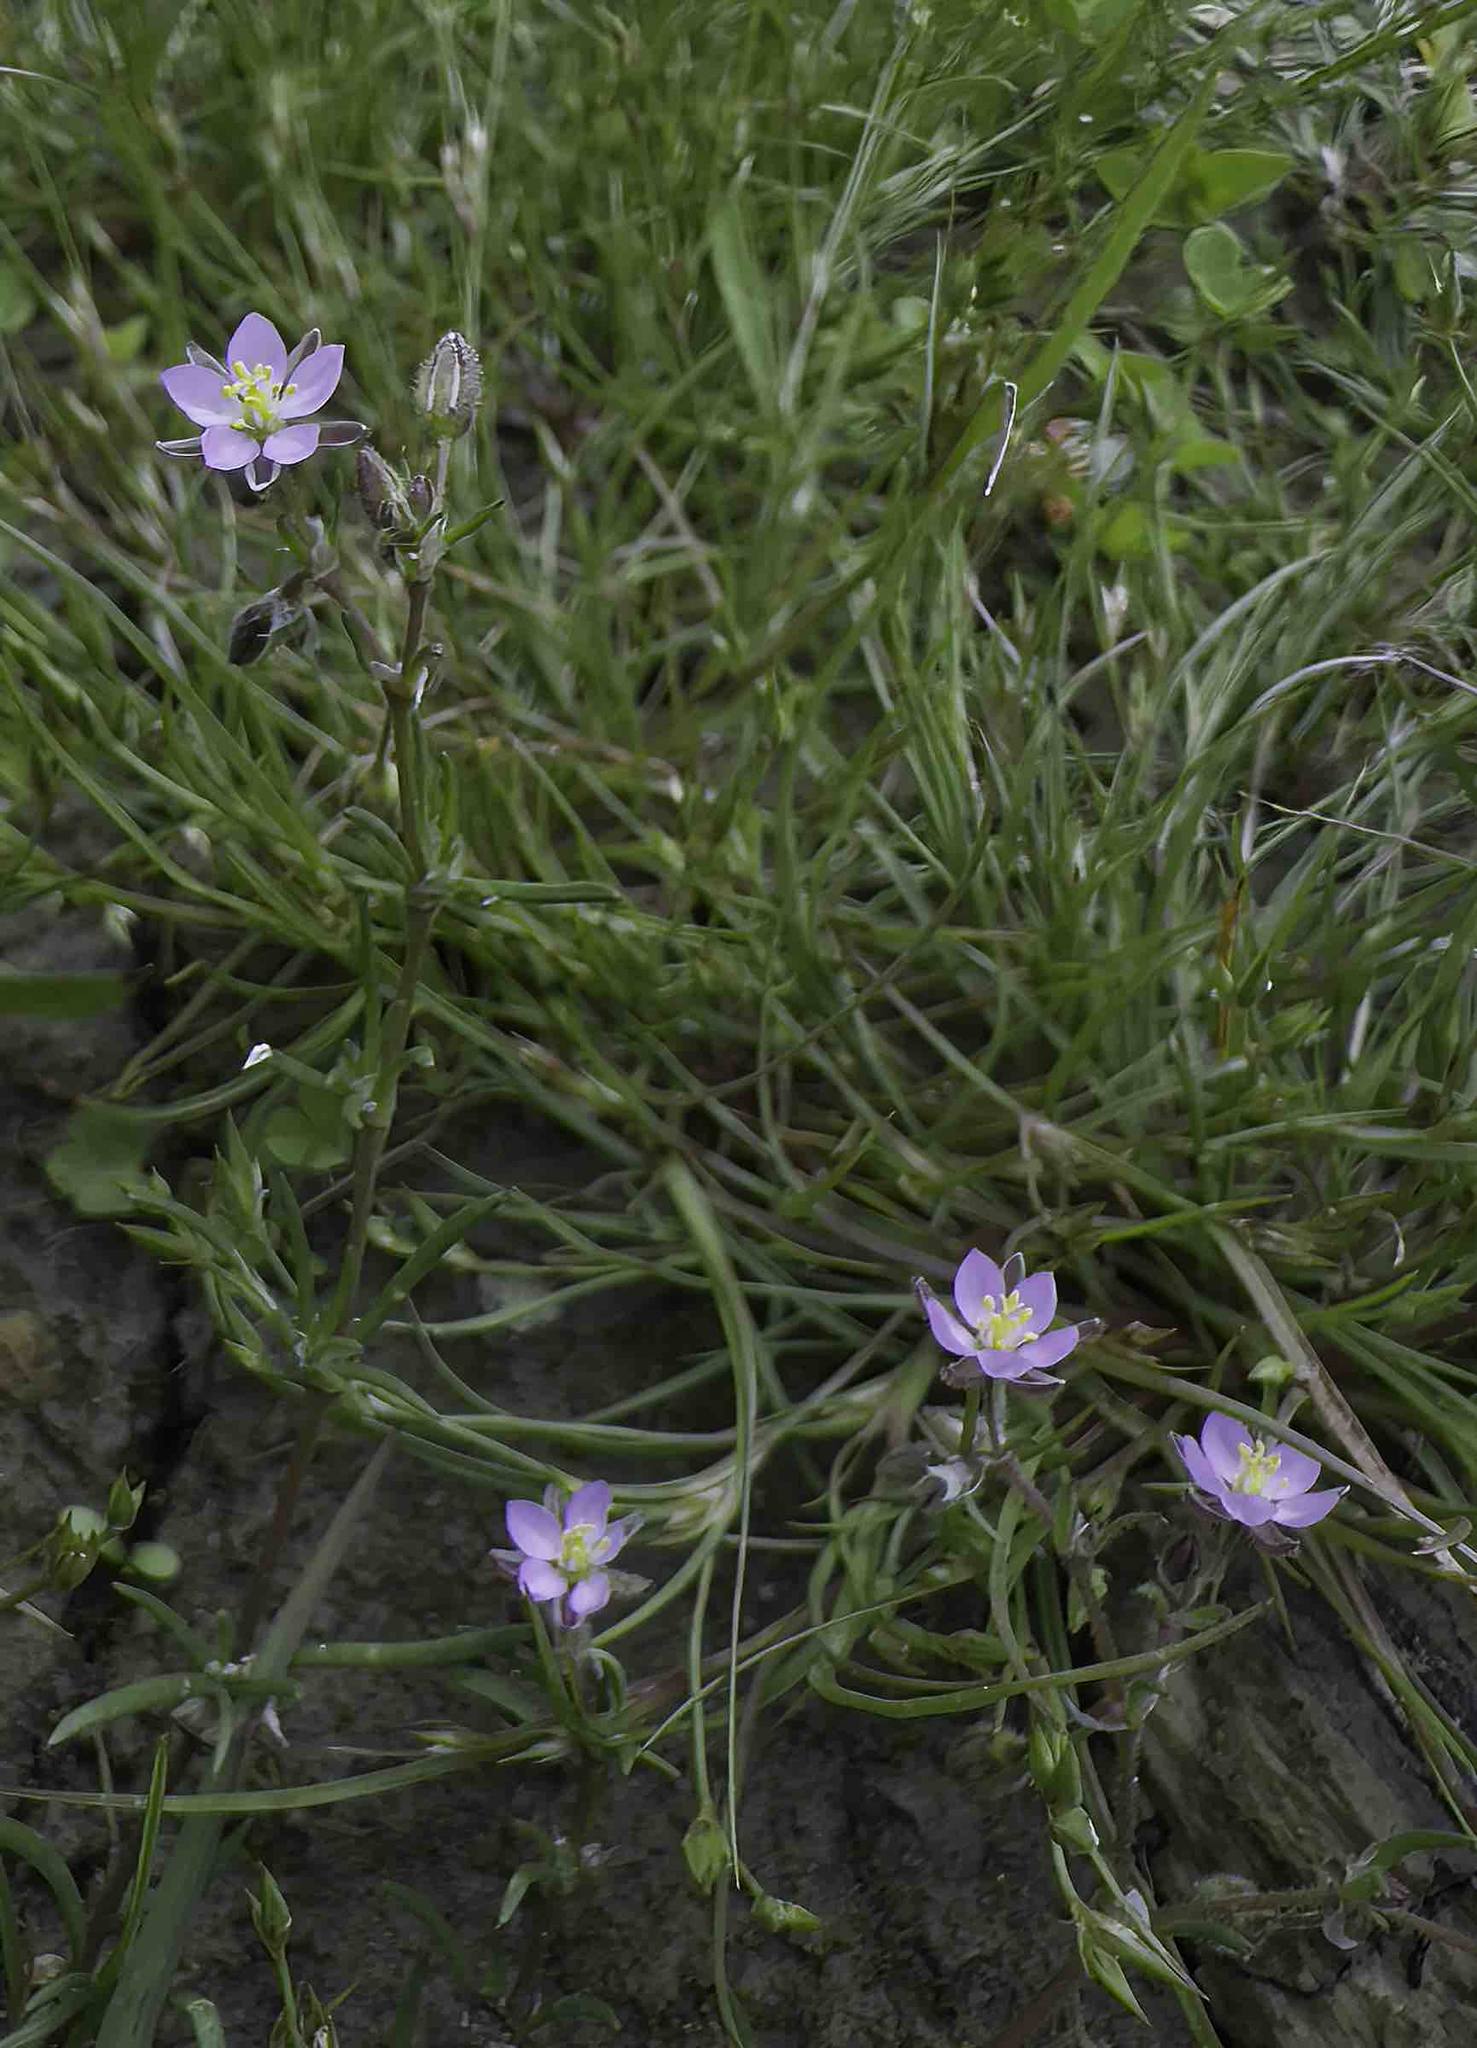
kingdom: Plantae
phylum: Tracheophyta
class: Magnoliopsida
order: Caryophyllales
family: Caryophyllaceae
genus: Spergularia
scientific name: Spergularia rubra
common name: Red sand-spurrey
